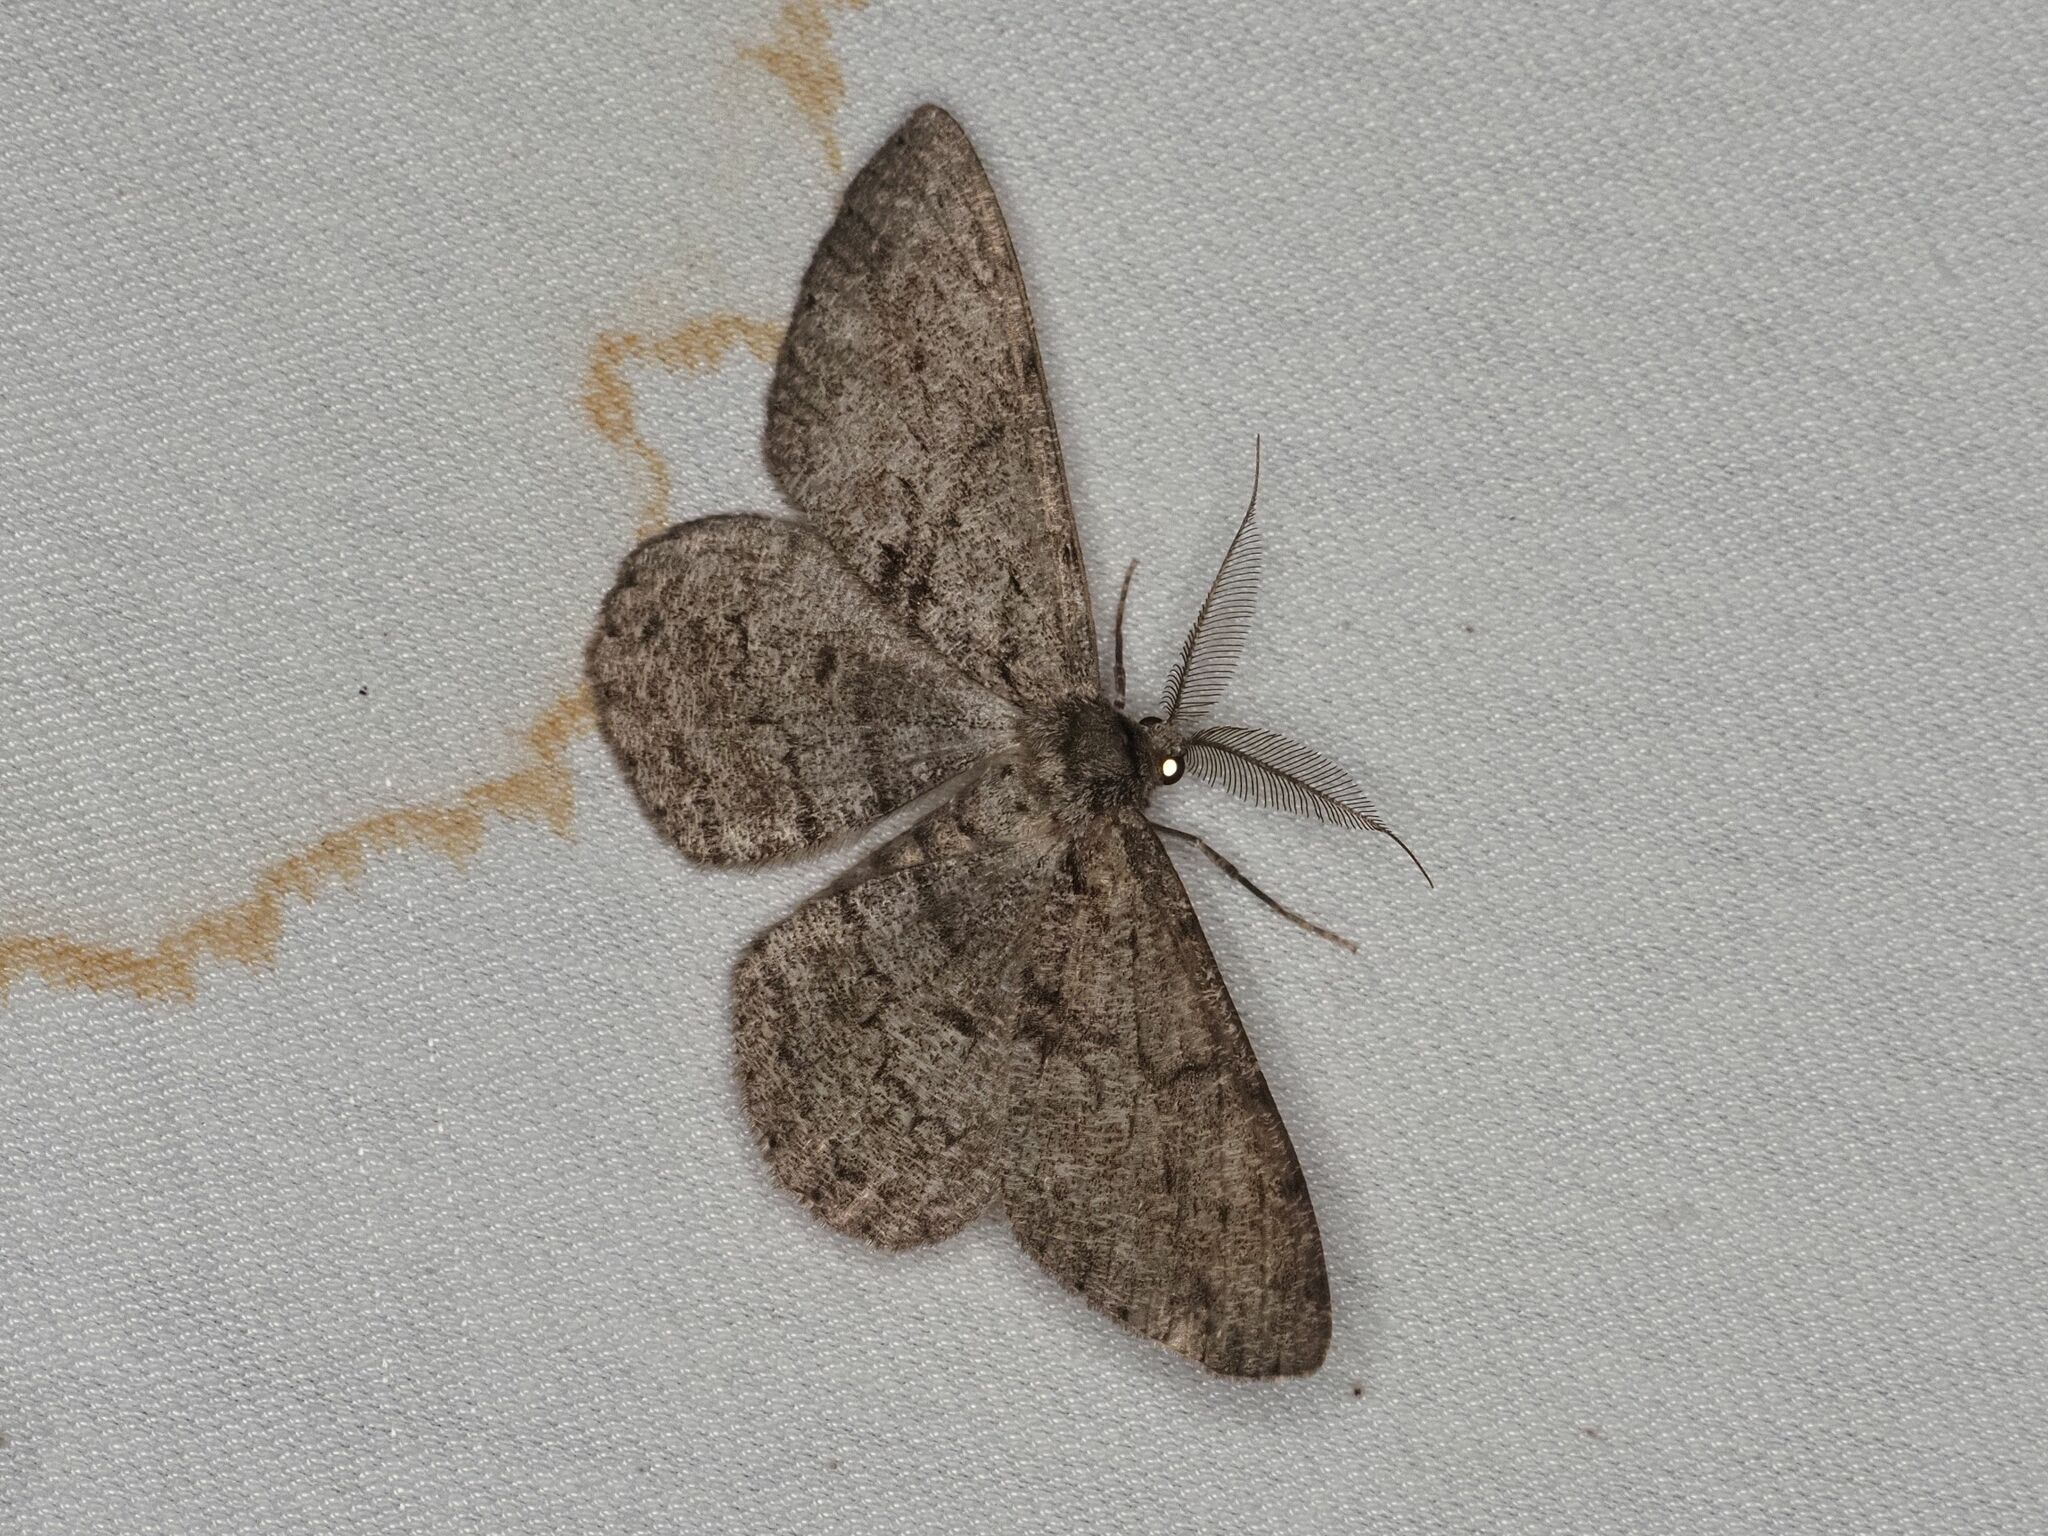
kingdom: Animalia
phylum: Arthropoda
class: Insecta
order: Lepidoptera
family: Geometridae
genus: Hypomecis
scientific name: Hypomecis roboraria
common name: Great oak beauty
